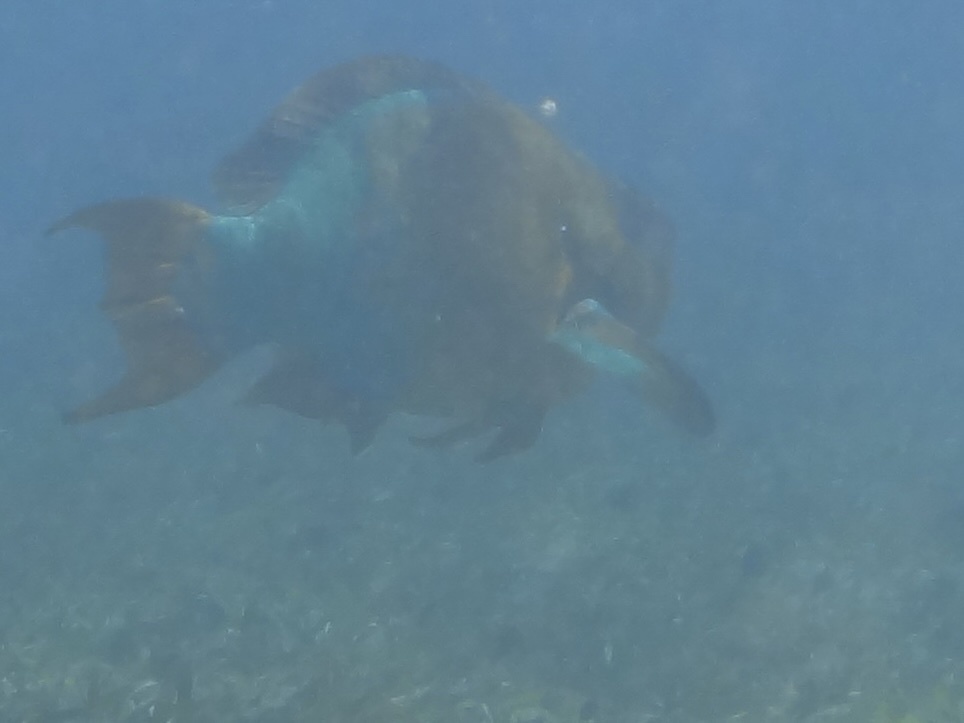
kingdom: Animalia
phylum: Chordata
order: Perciformes
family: Scaridae
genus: Scarus
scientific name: Scarus guacamaia
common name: Rainbow parrotfish
